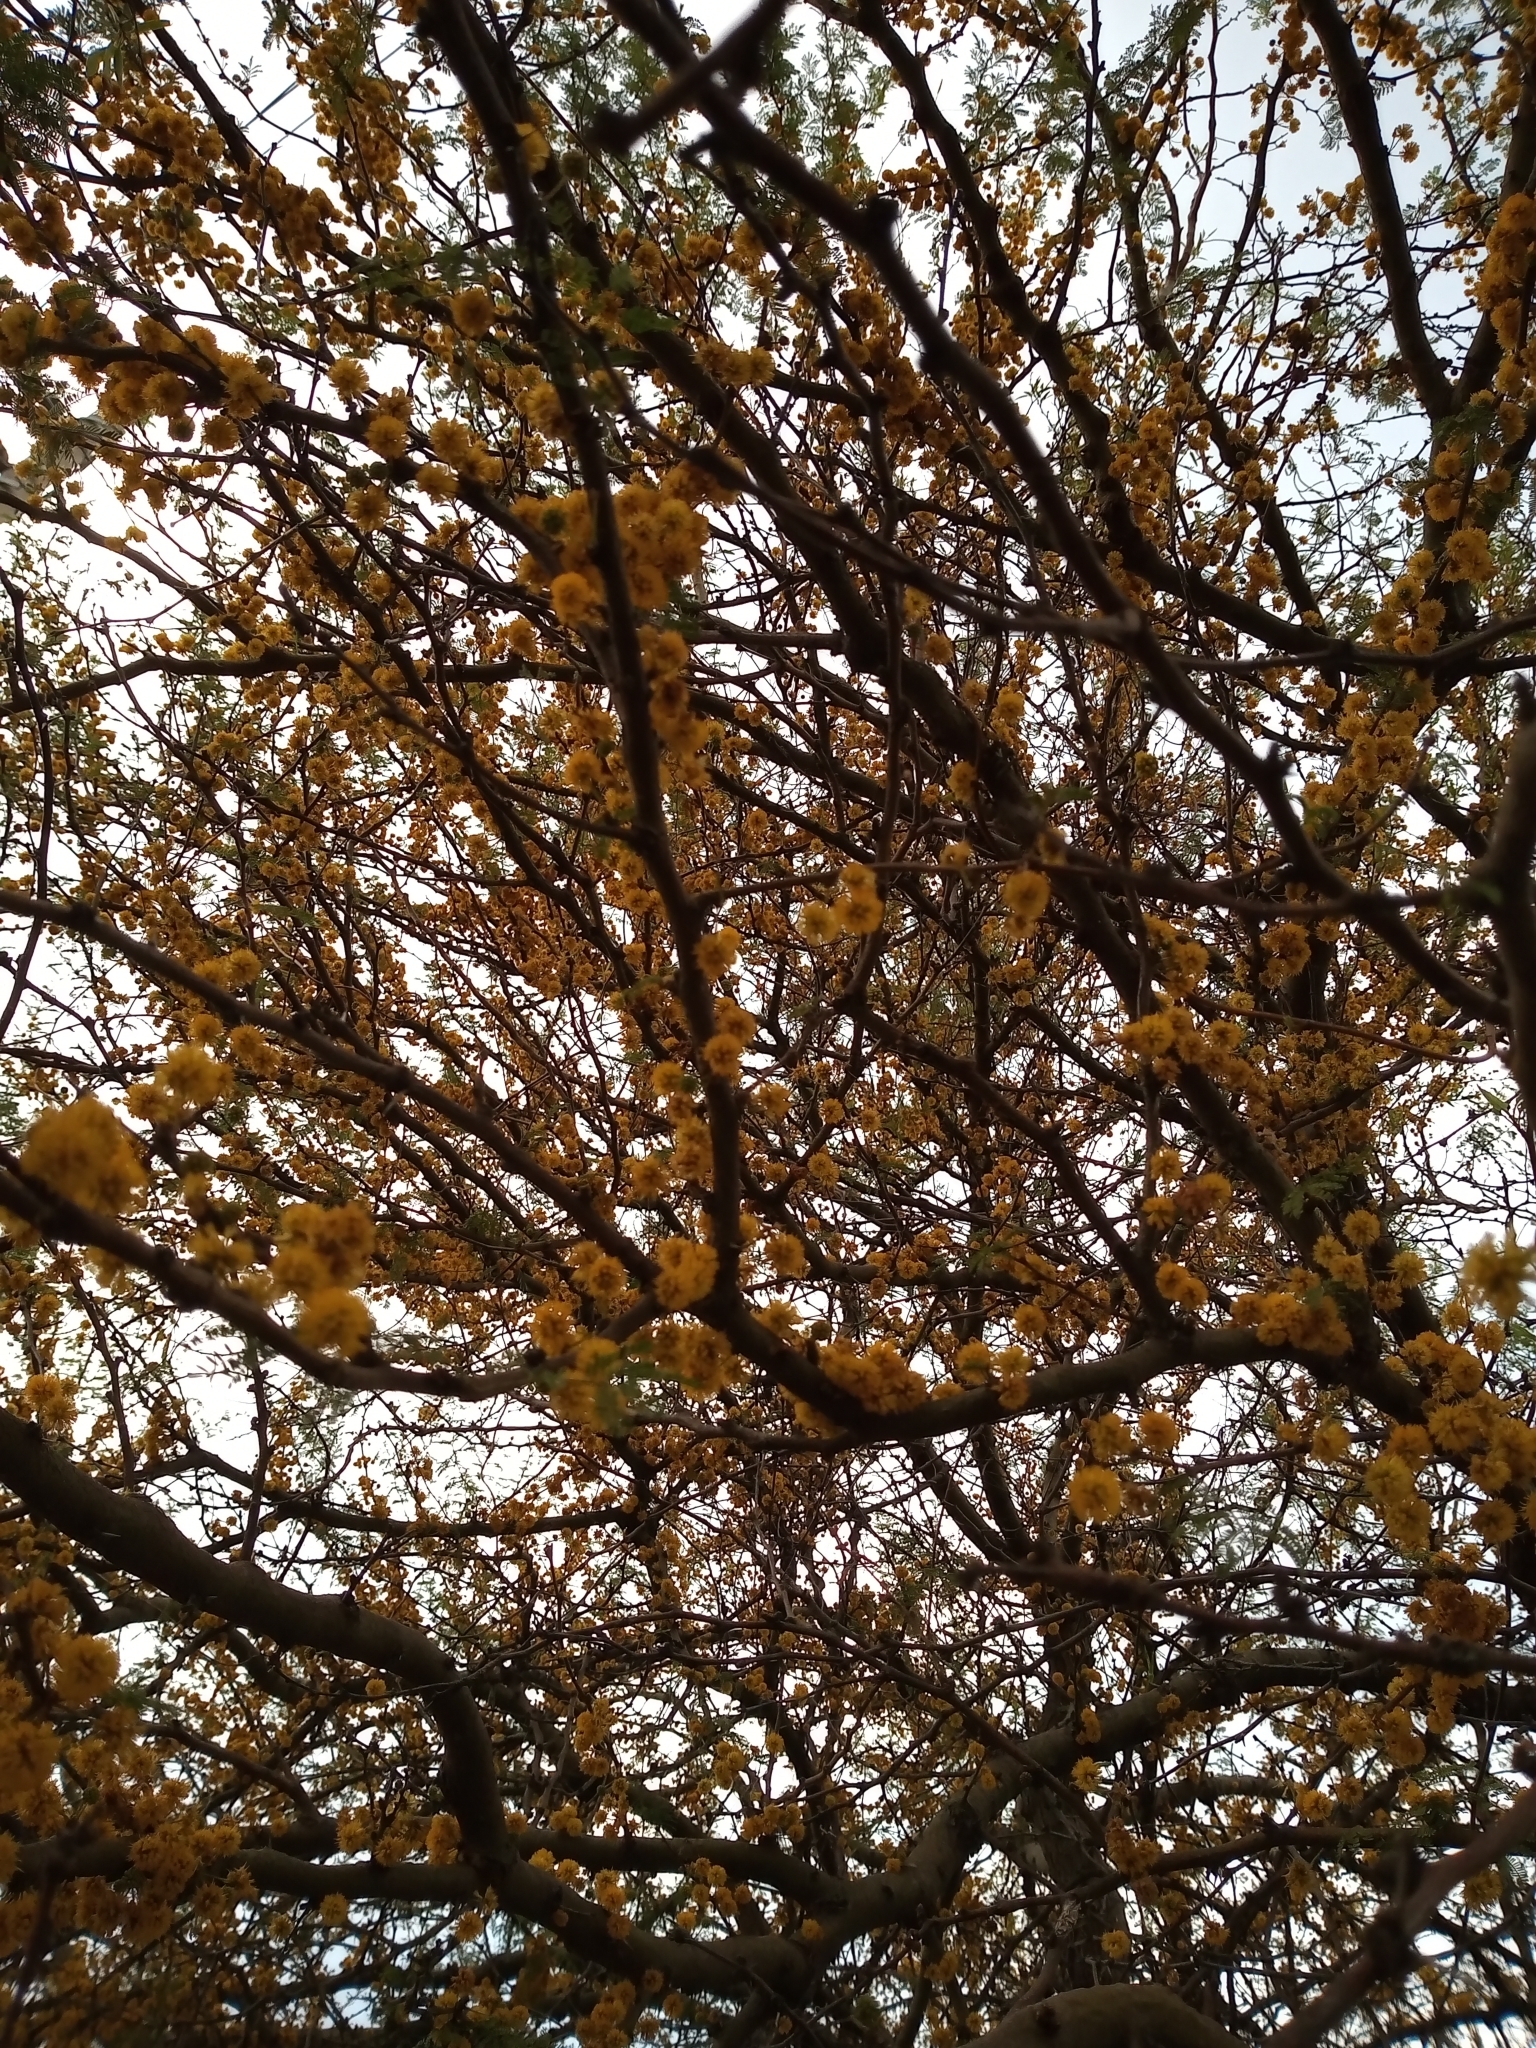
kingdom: Plantae
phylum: Tracheophyta
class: Magnoliopsida
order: Fabales
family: Fabaceae
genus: Vachellia
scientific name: Vachellia caven
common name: Roman cassie
